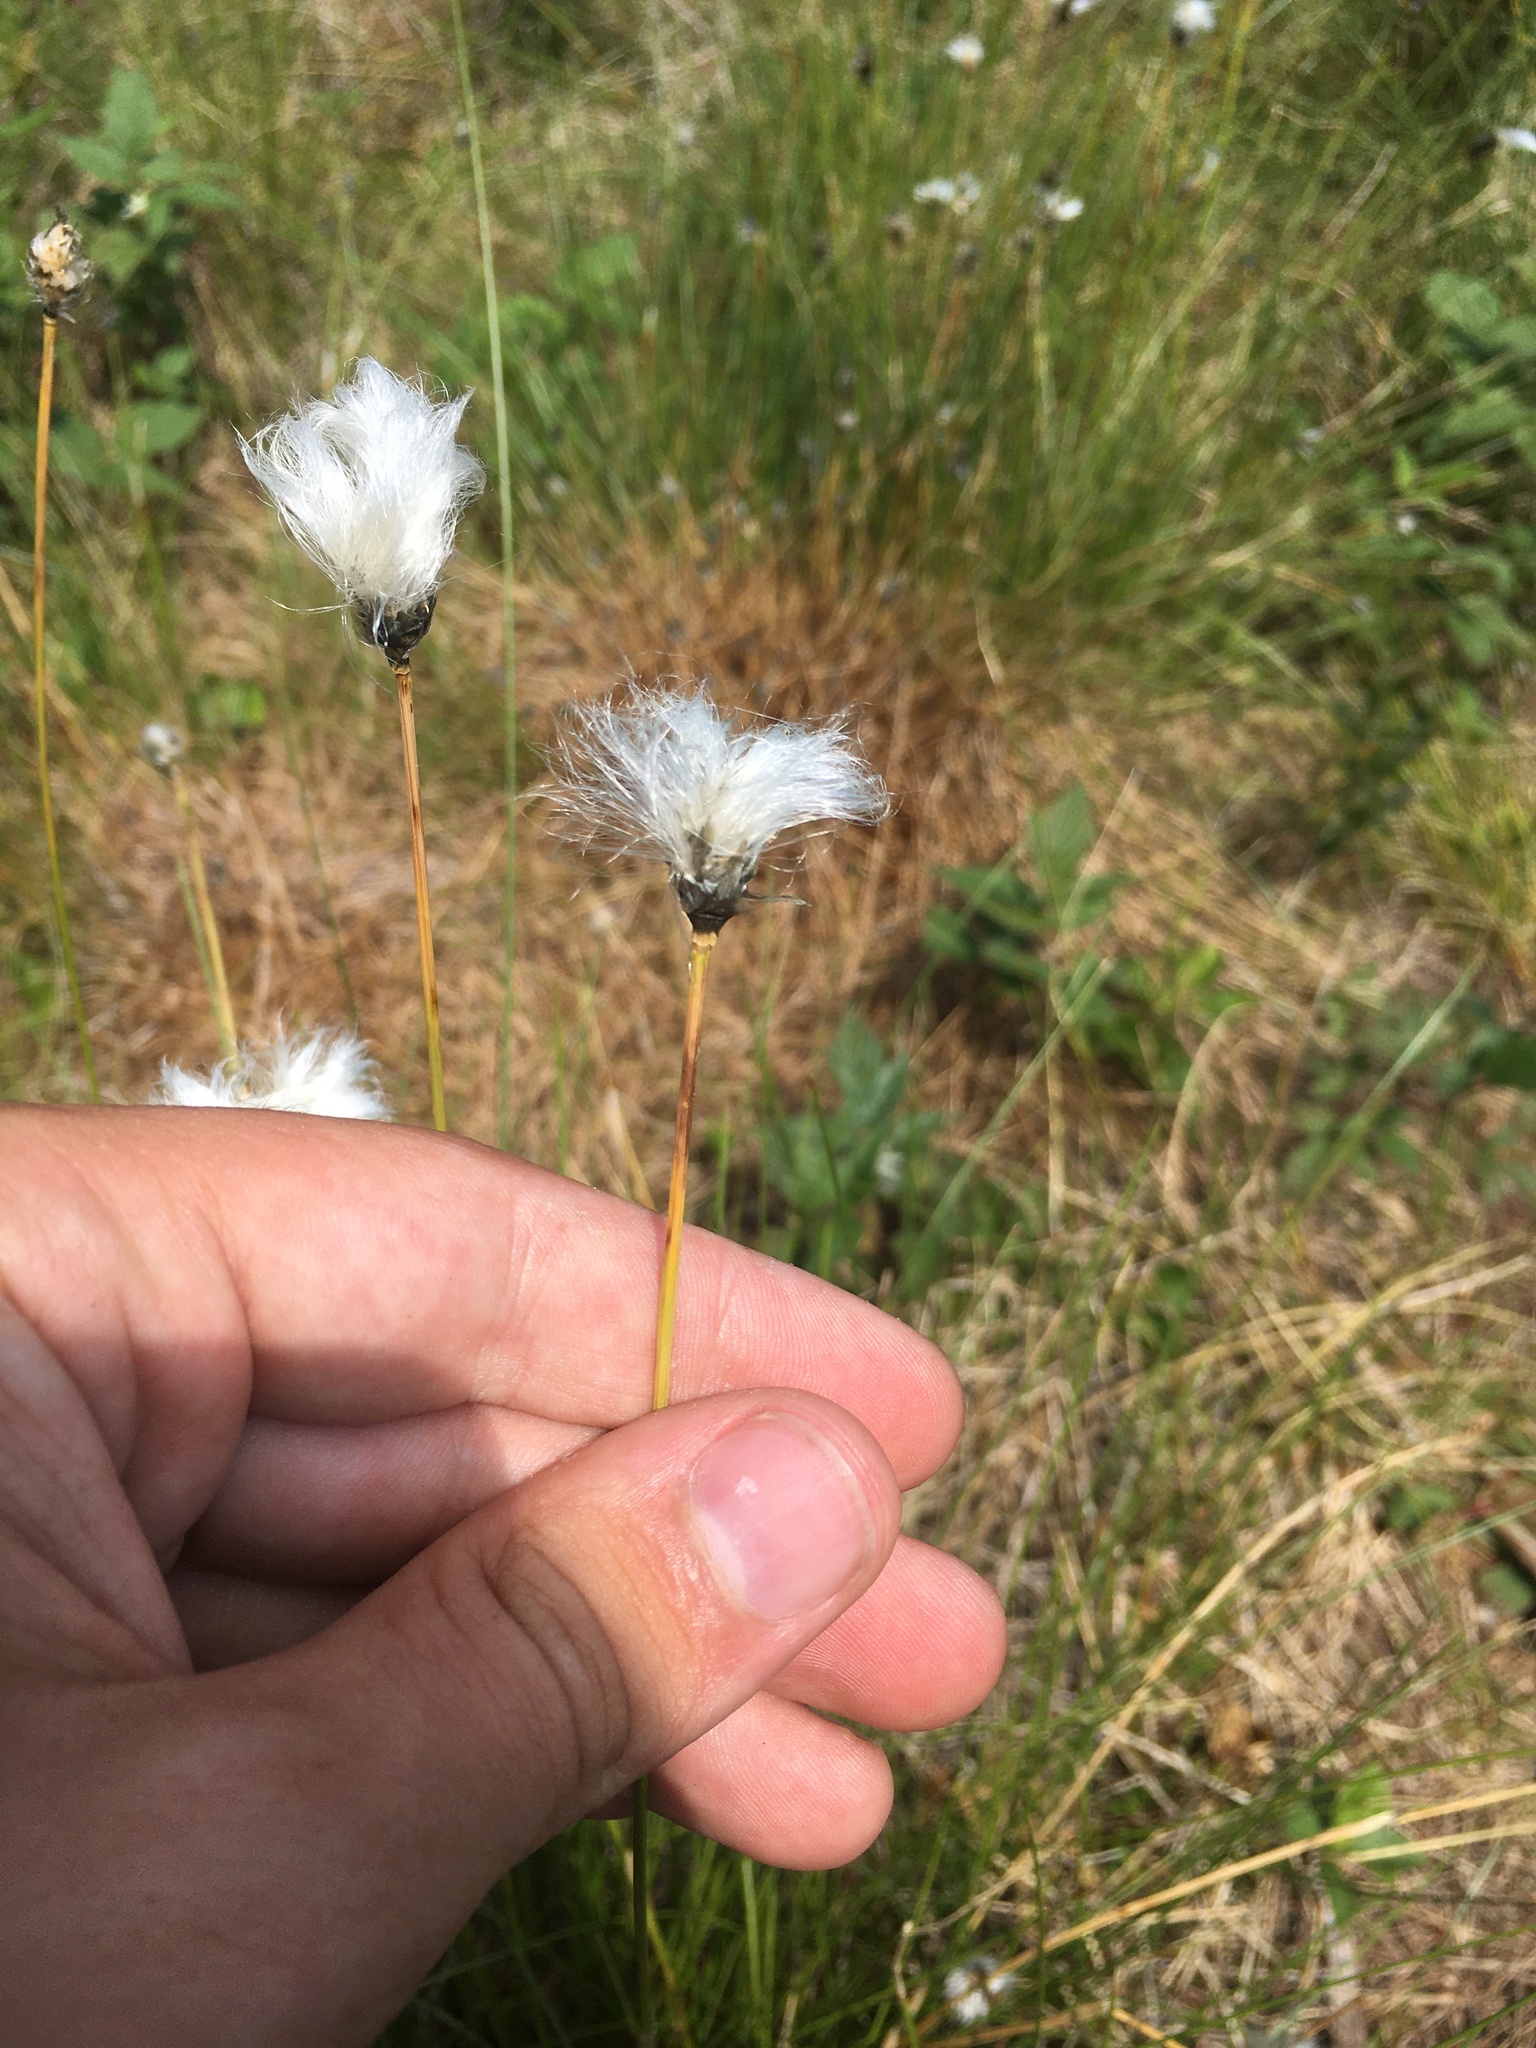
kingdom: Plantae
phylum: Tracheophyta
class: Liliopsida
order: Poales
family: Cyperaceae
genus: Eriophorum
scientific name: Eriophorum vaginatum
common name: Hare's-tail cottongrass
